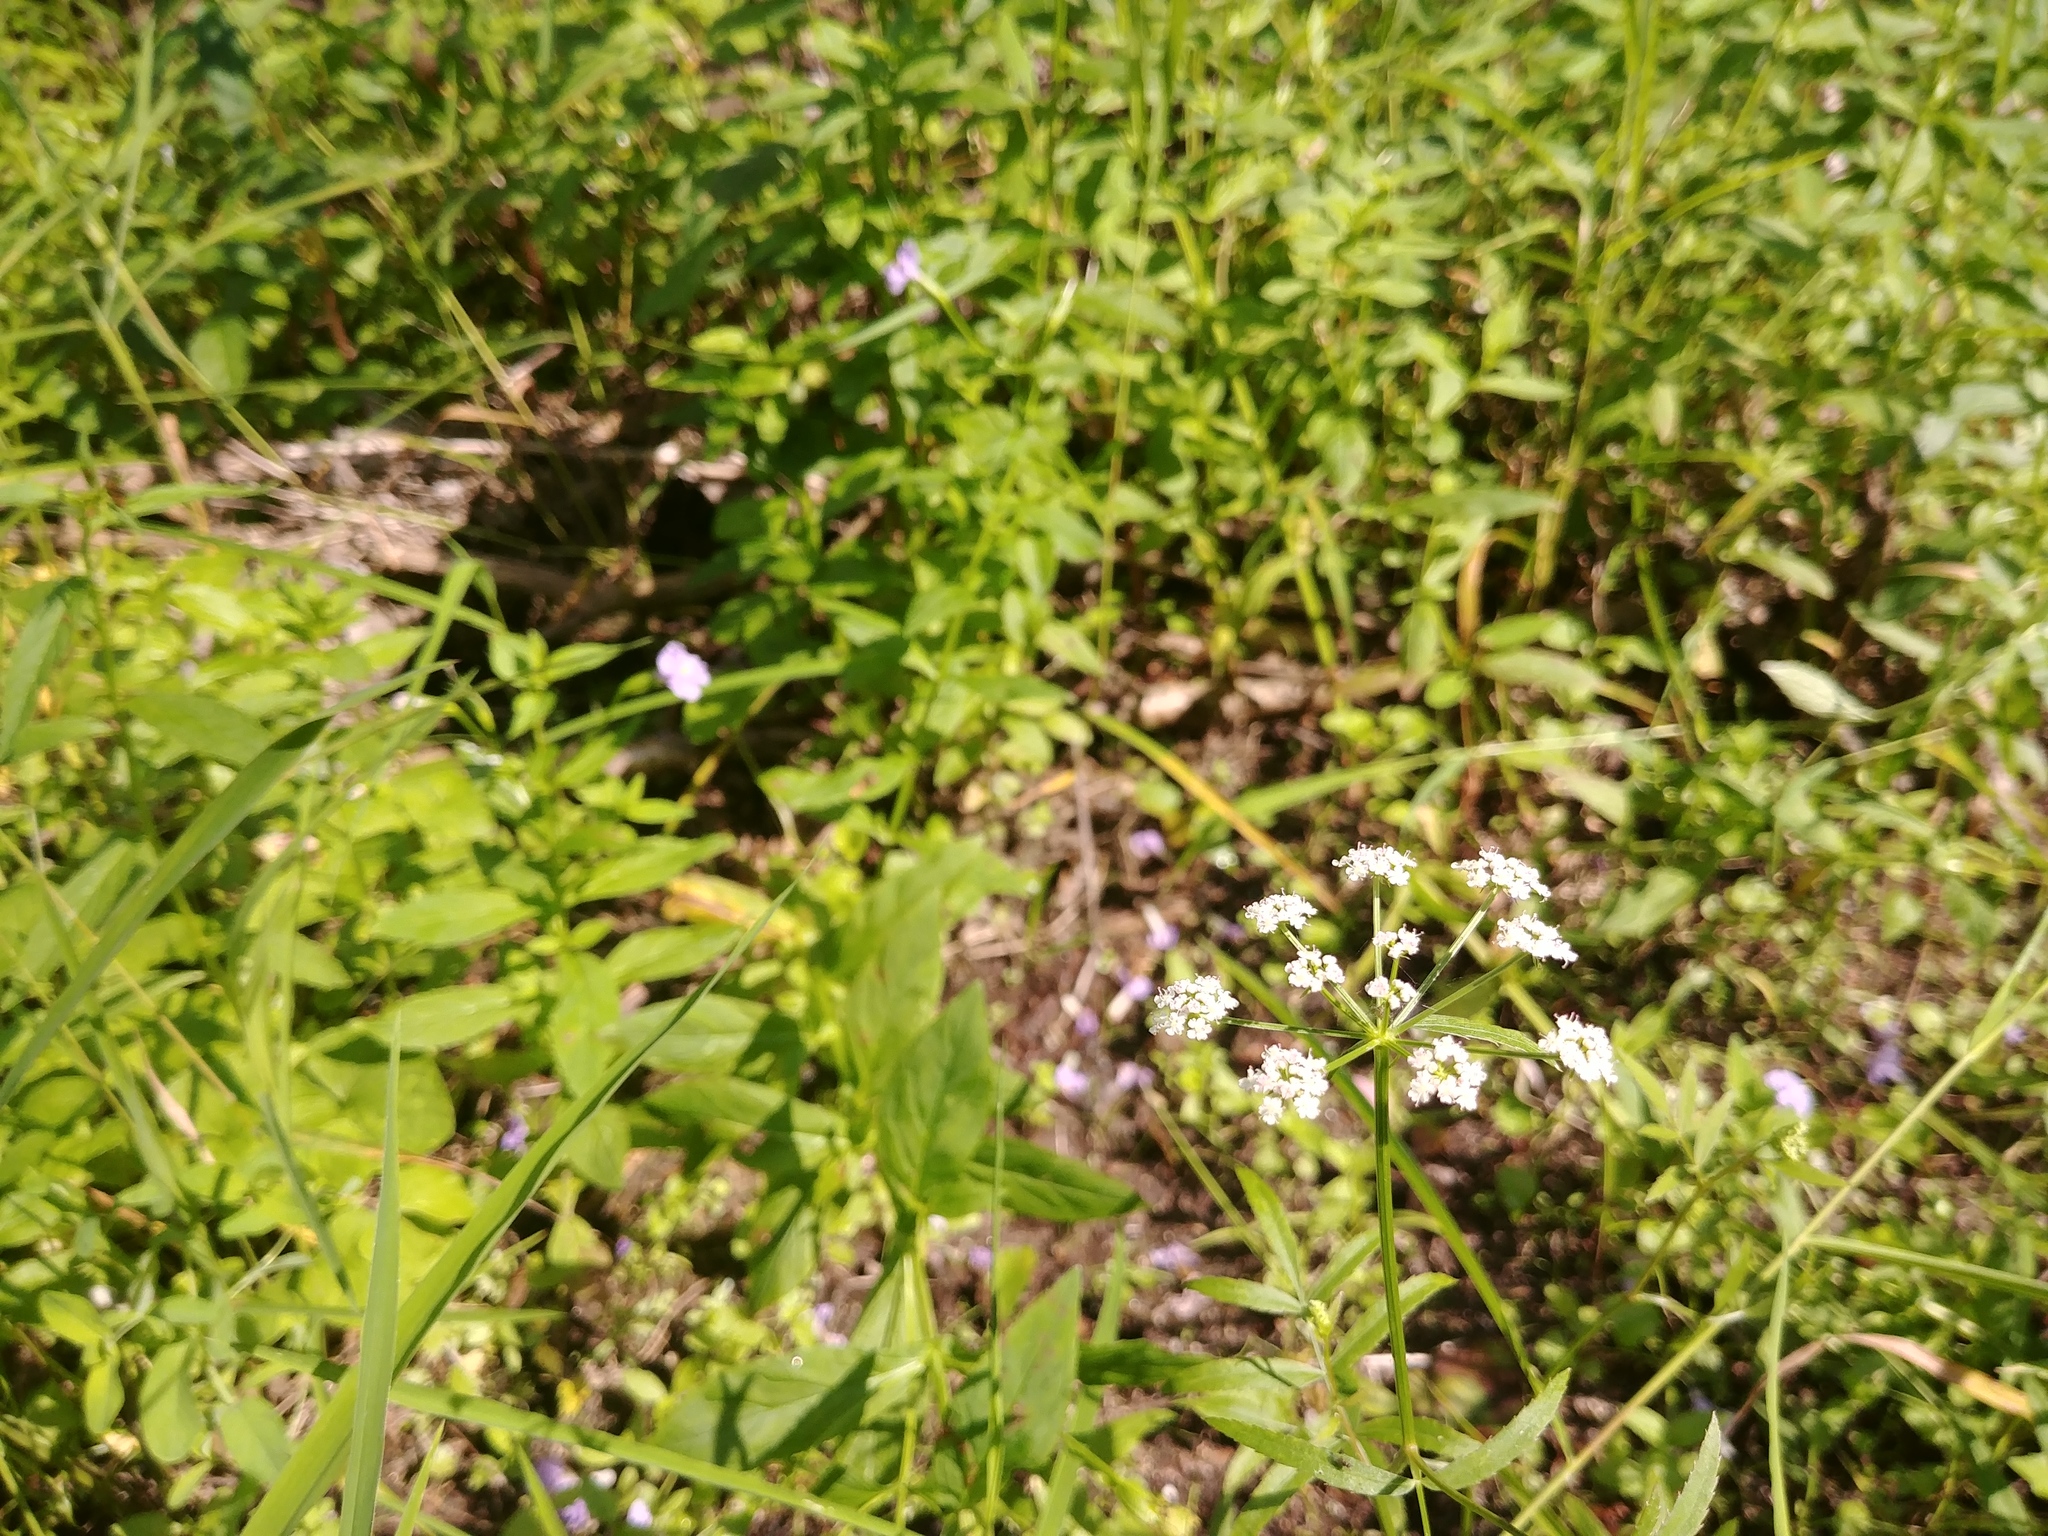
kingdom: Plantae
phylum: Tracheophyta
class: Magnoliopsida
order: Apiales
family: Apiaceae
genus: Sium
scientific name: Sium suave
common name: Hemlock water-parsnip
